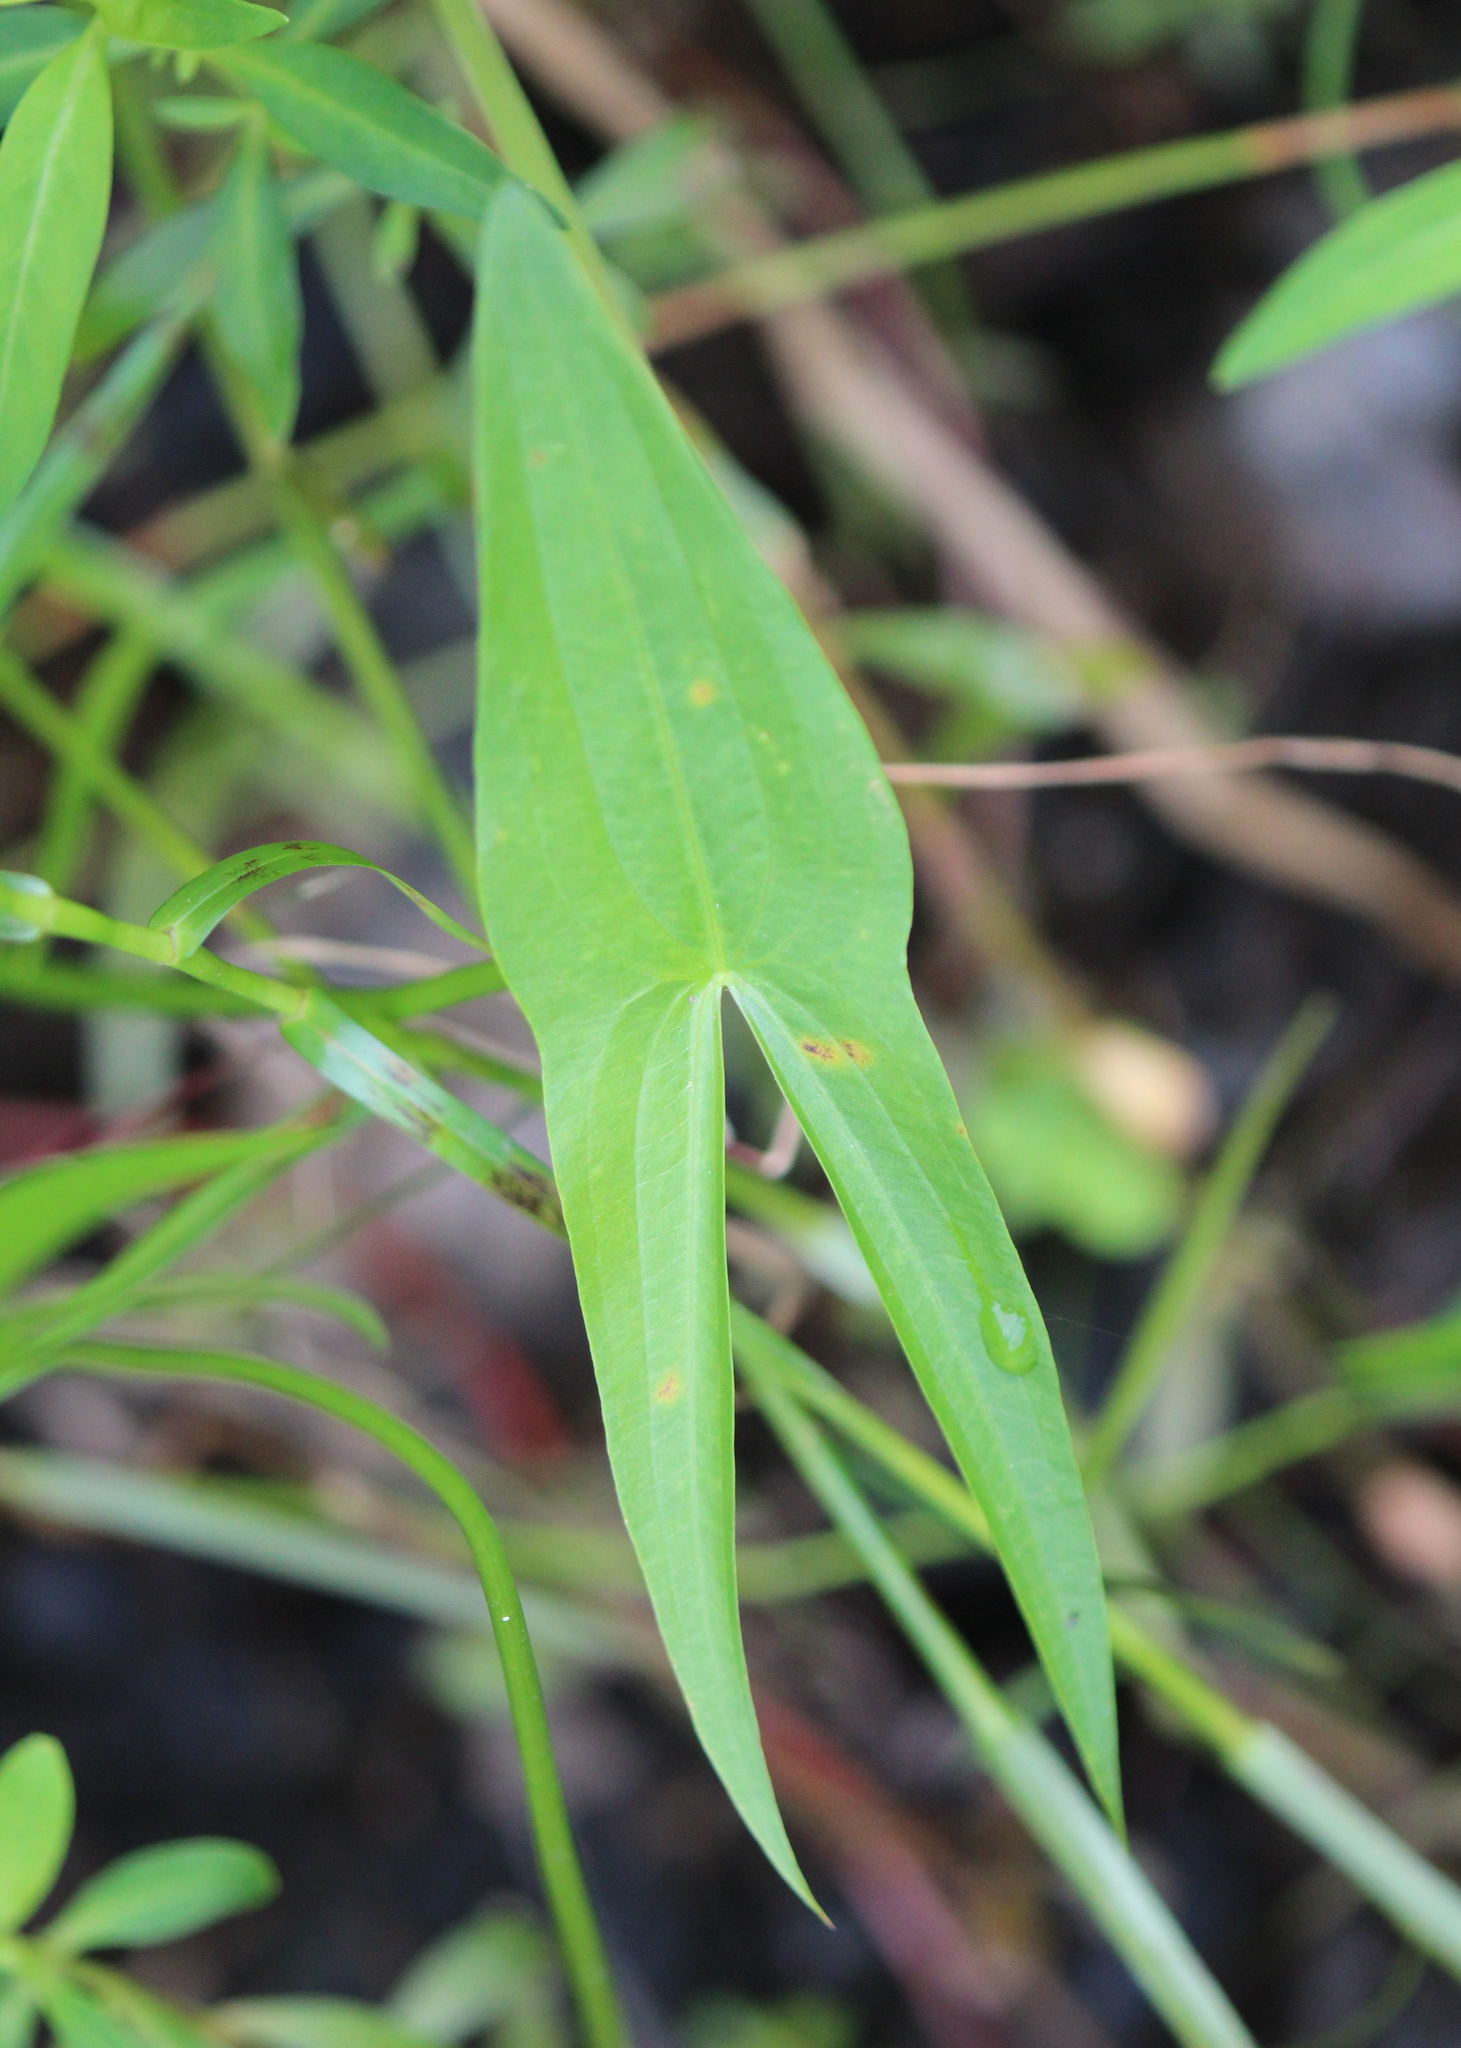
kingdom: Plantae
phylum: Tracheophyta
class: Liliopsida
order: Alismatales
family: Alismataceae
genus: Sagittaria
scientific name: Sagittaria latifolia
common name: Duck-potato
